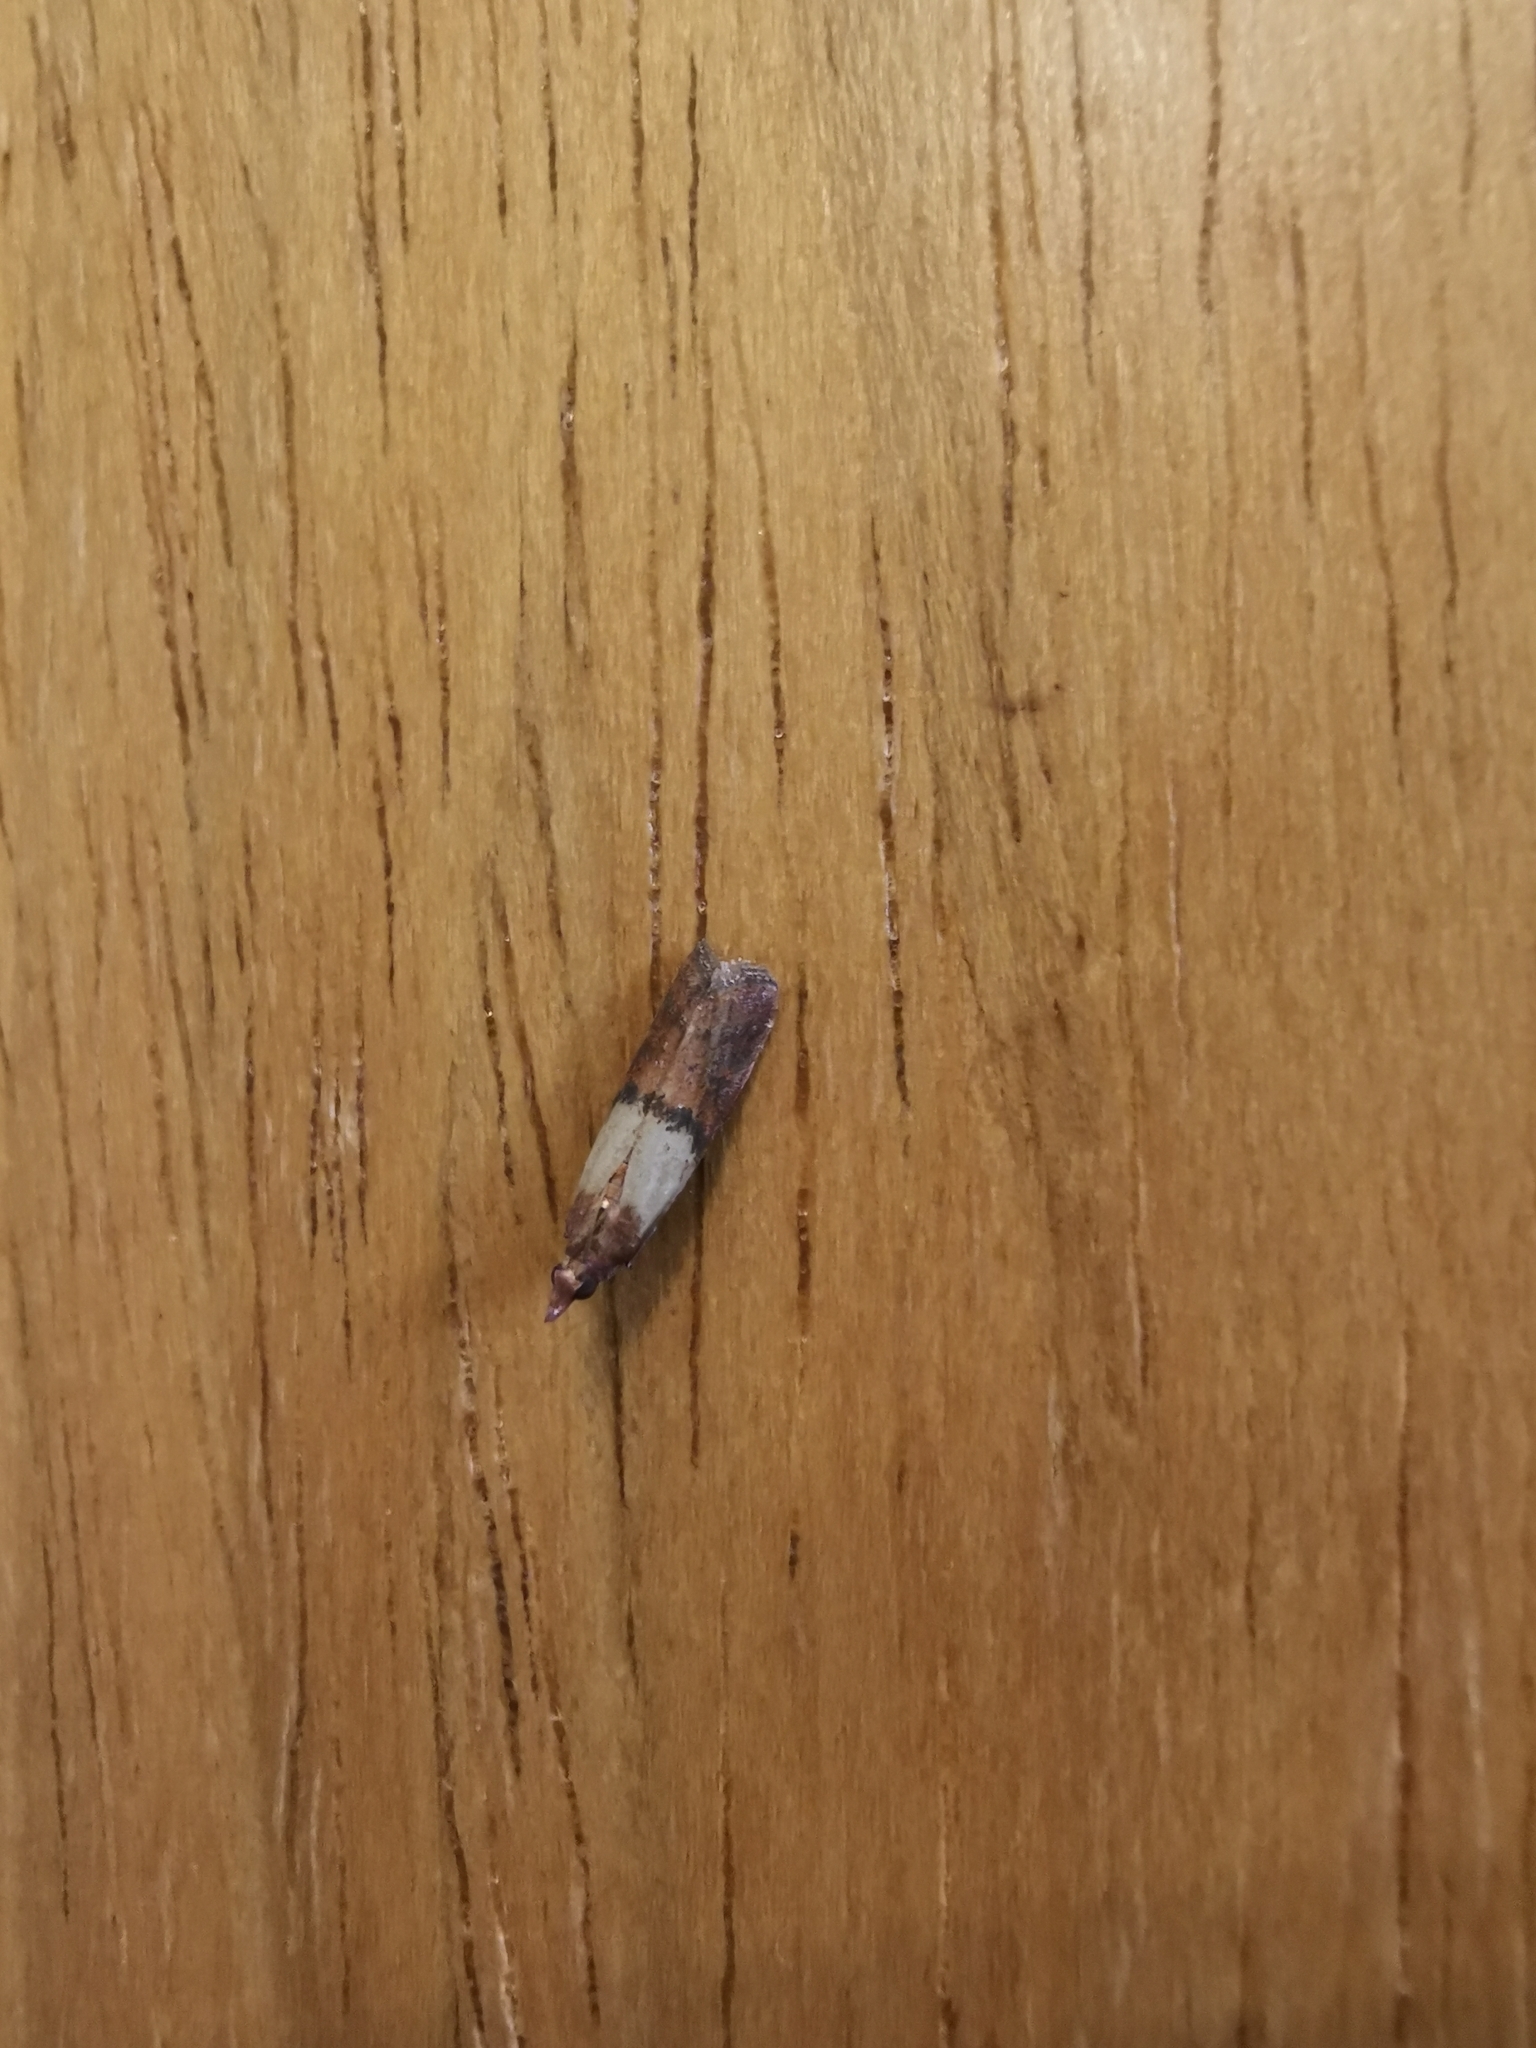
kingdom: Animalia
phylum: Arthropoda
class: Insecta
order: Lepidoptera
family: Pyralidae
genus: Plodia
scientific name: Plodia interpunctella
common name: Indian meal moth
